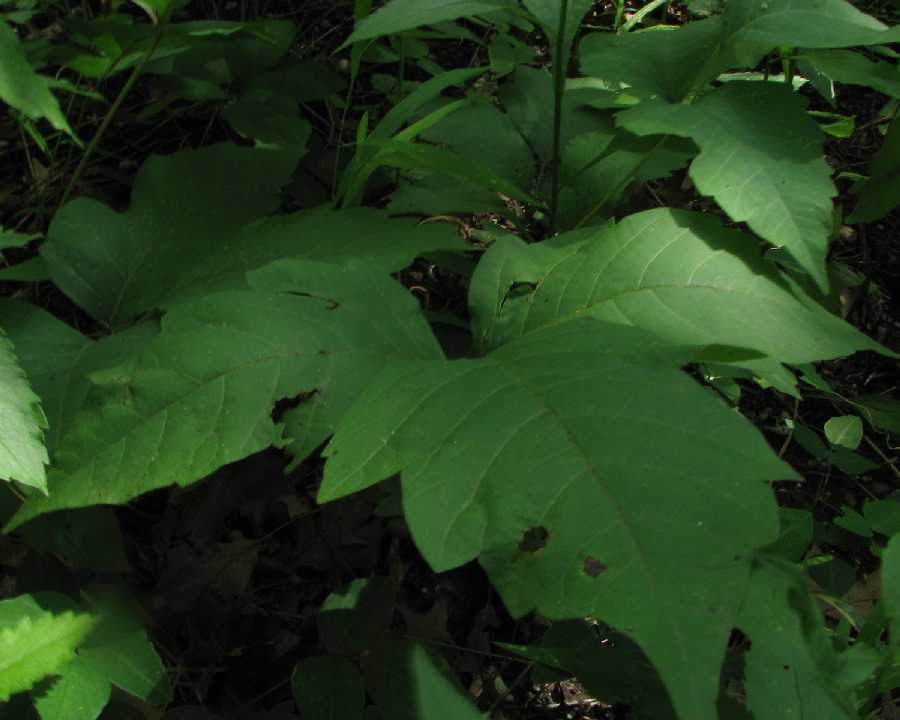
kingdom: Plantae
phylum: Tracheophyta
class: Magnoliopsida
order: Sapindales
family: Anacardiaceae
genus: Toxicodendron
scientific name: Toxicodendron radicans
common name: Poison ivy
